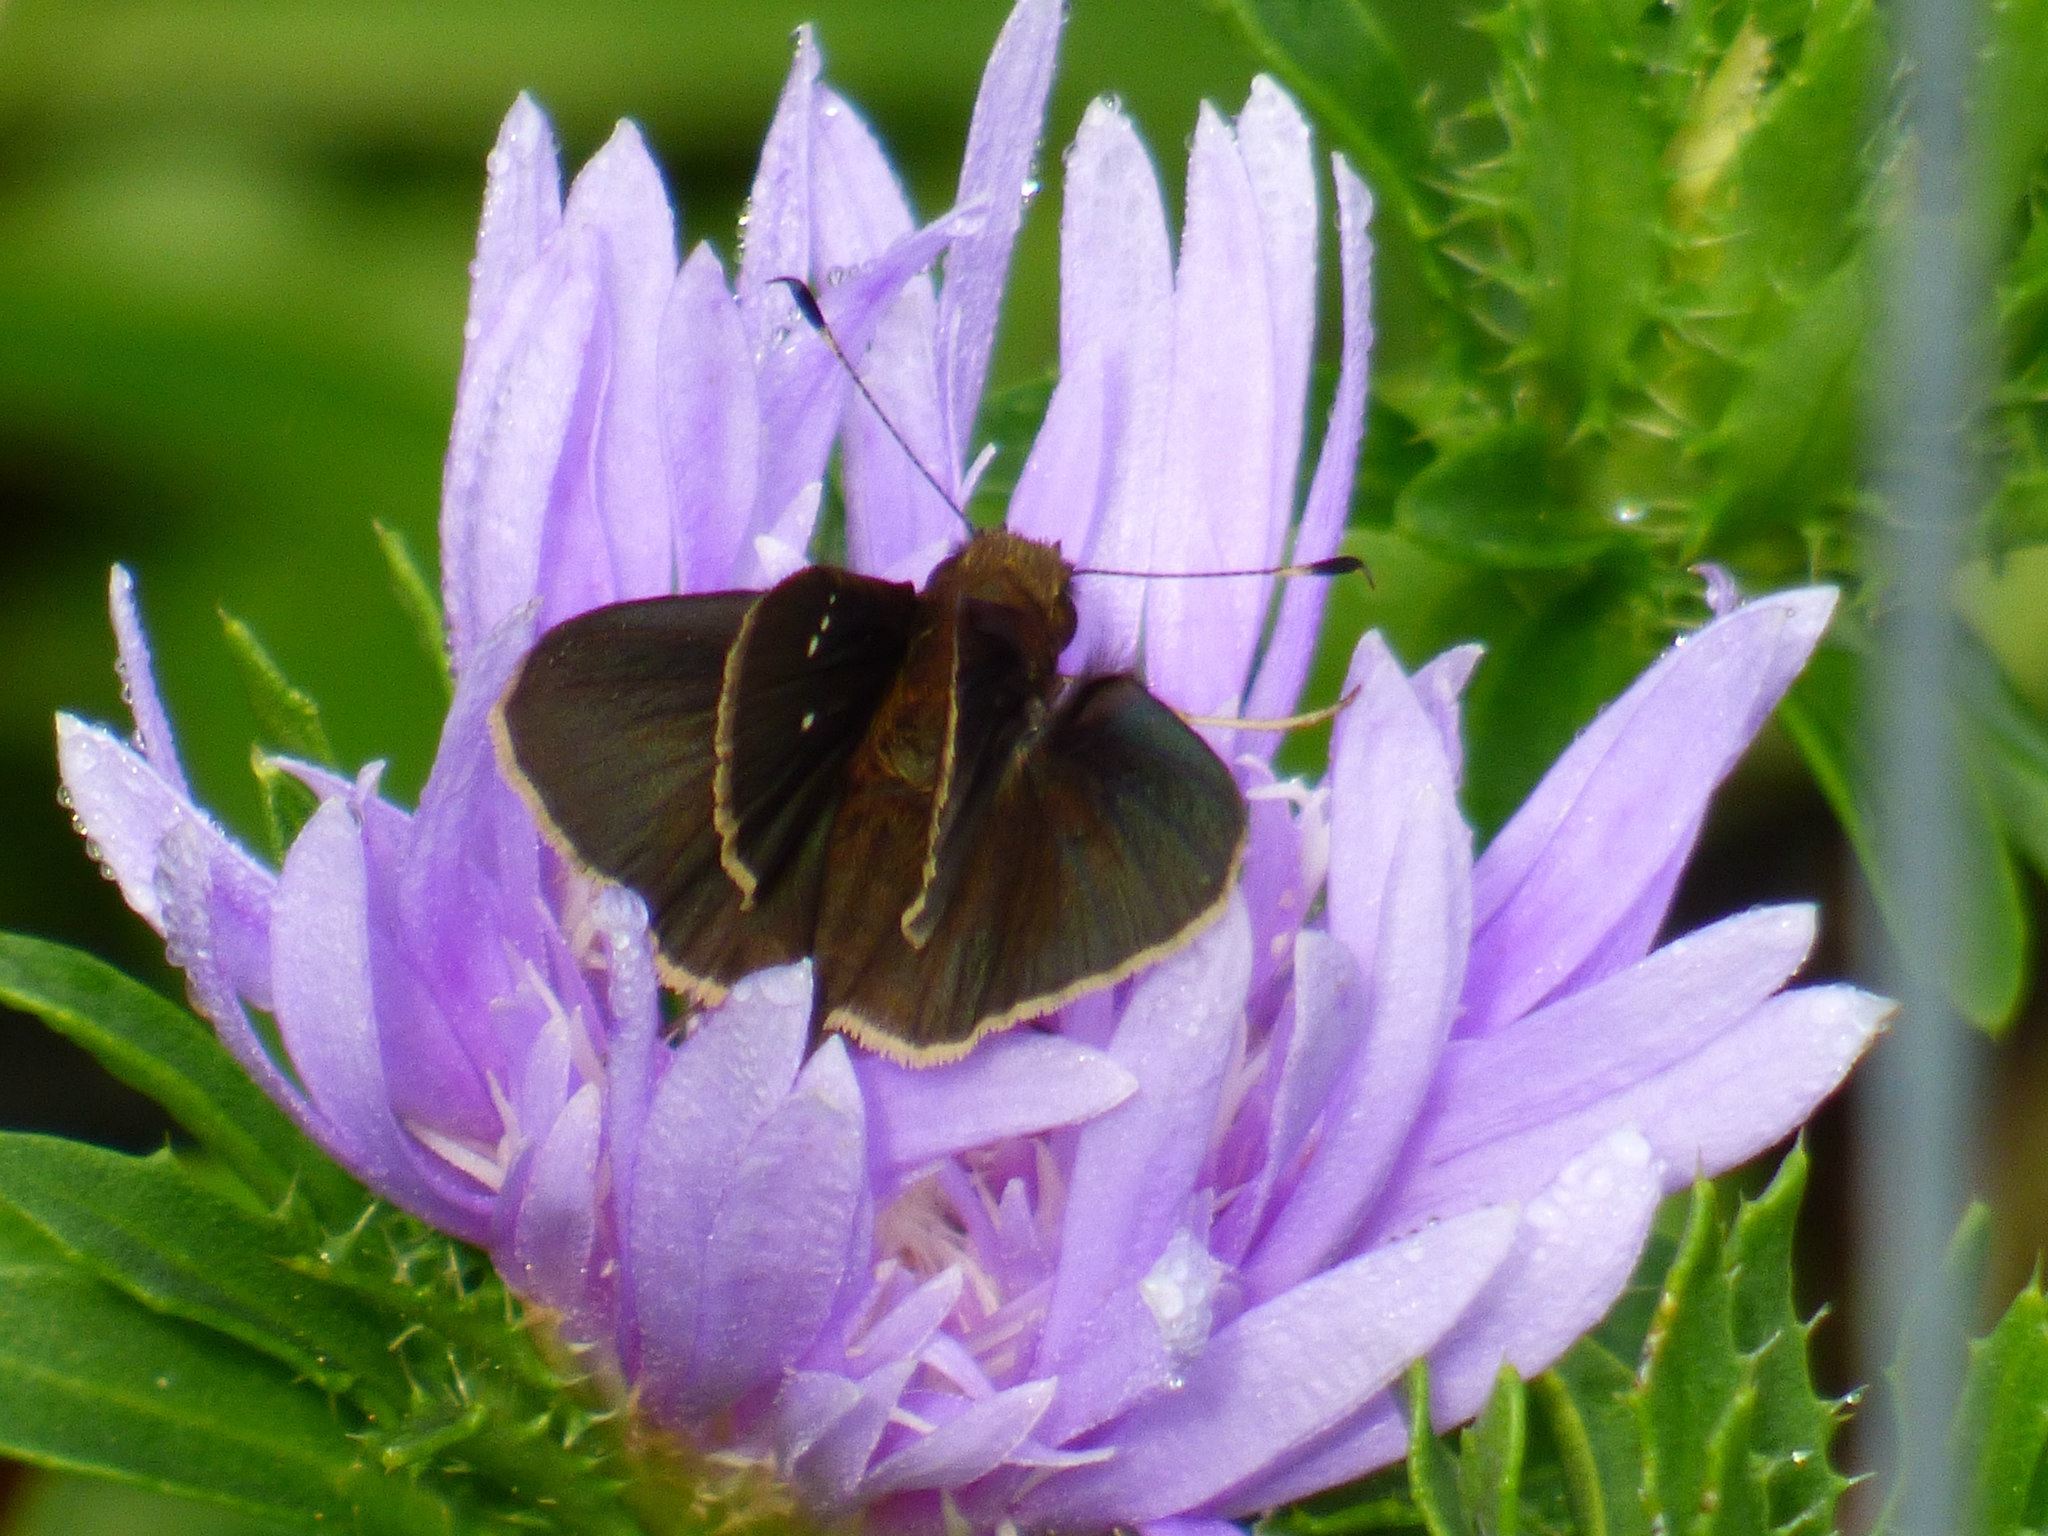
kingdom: Animalia
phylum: Arthropoda
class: Insecta
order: Lepidoptera
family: Hesperiidae
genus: Lerema
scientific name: Lerema accius
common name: Clouded skipper
